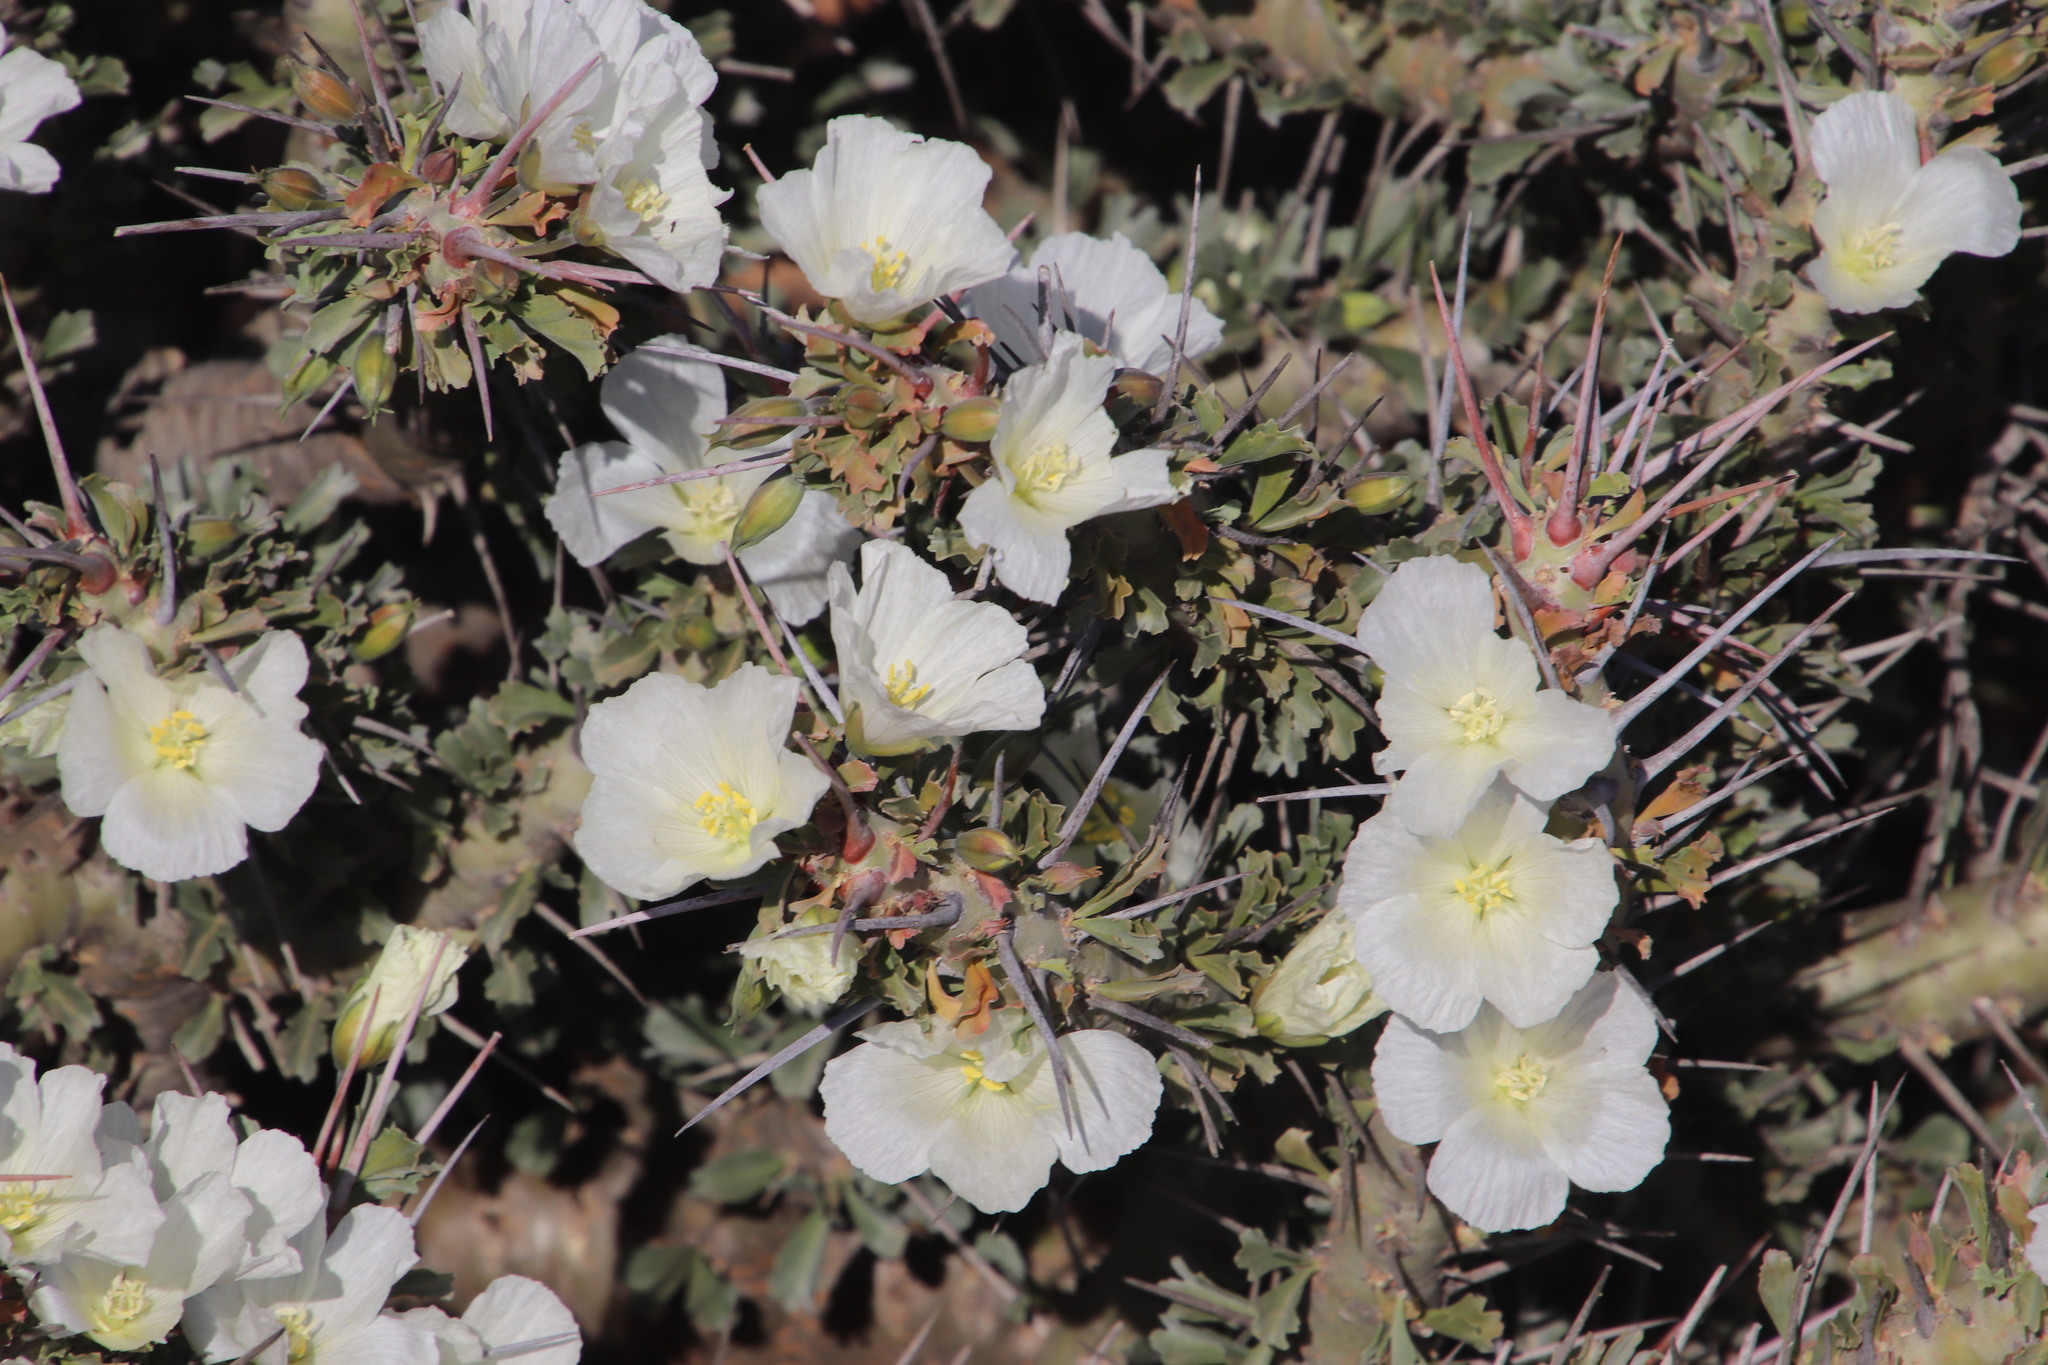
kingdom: Plantae
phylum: Tracheophyta
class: Magnoliopsida
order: Geraniales
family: Geraniaceae
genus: Monsonia
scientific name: Monsonia crassicaulis
